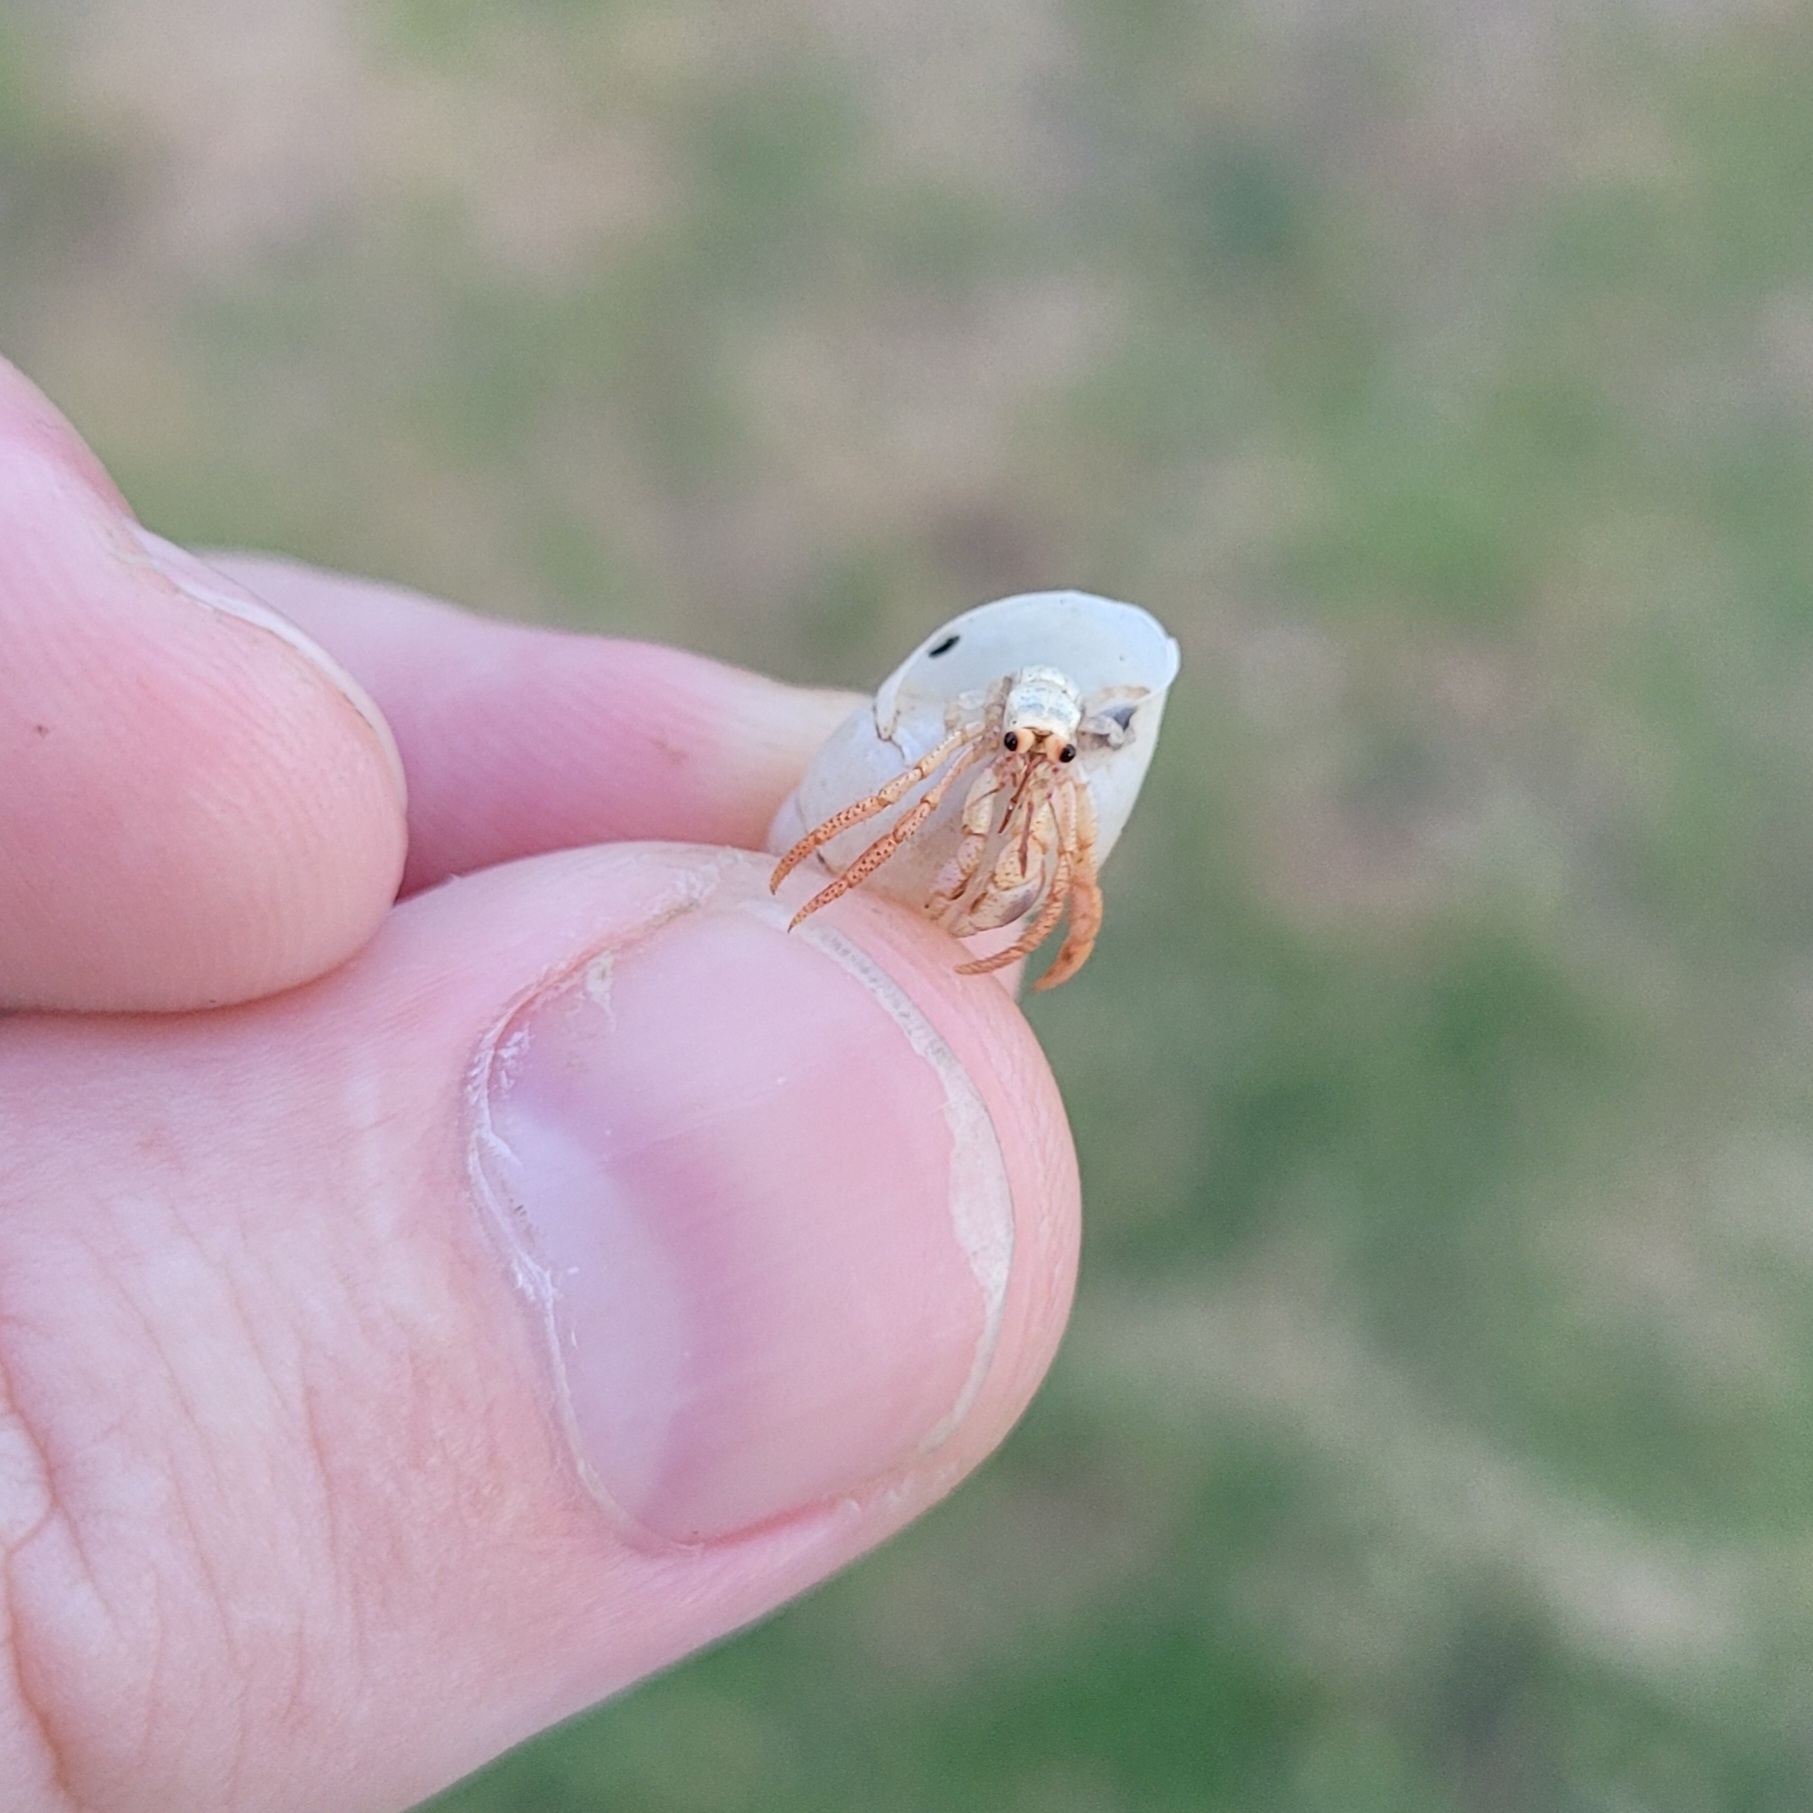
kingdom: Animalia
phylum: Arthropoda
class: Malacostraca
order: Decapoda
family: Coenobitidae
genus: Coenobita
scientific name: Coenobita clypeatus
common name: Caribbean hermit crab
